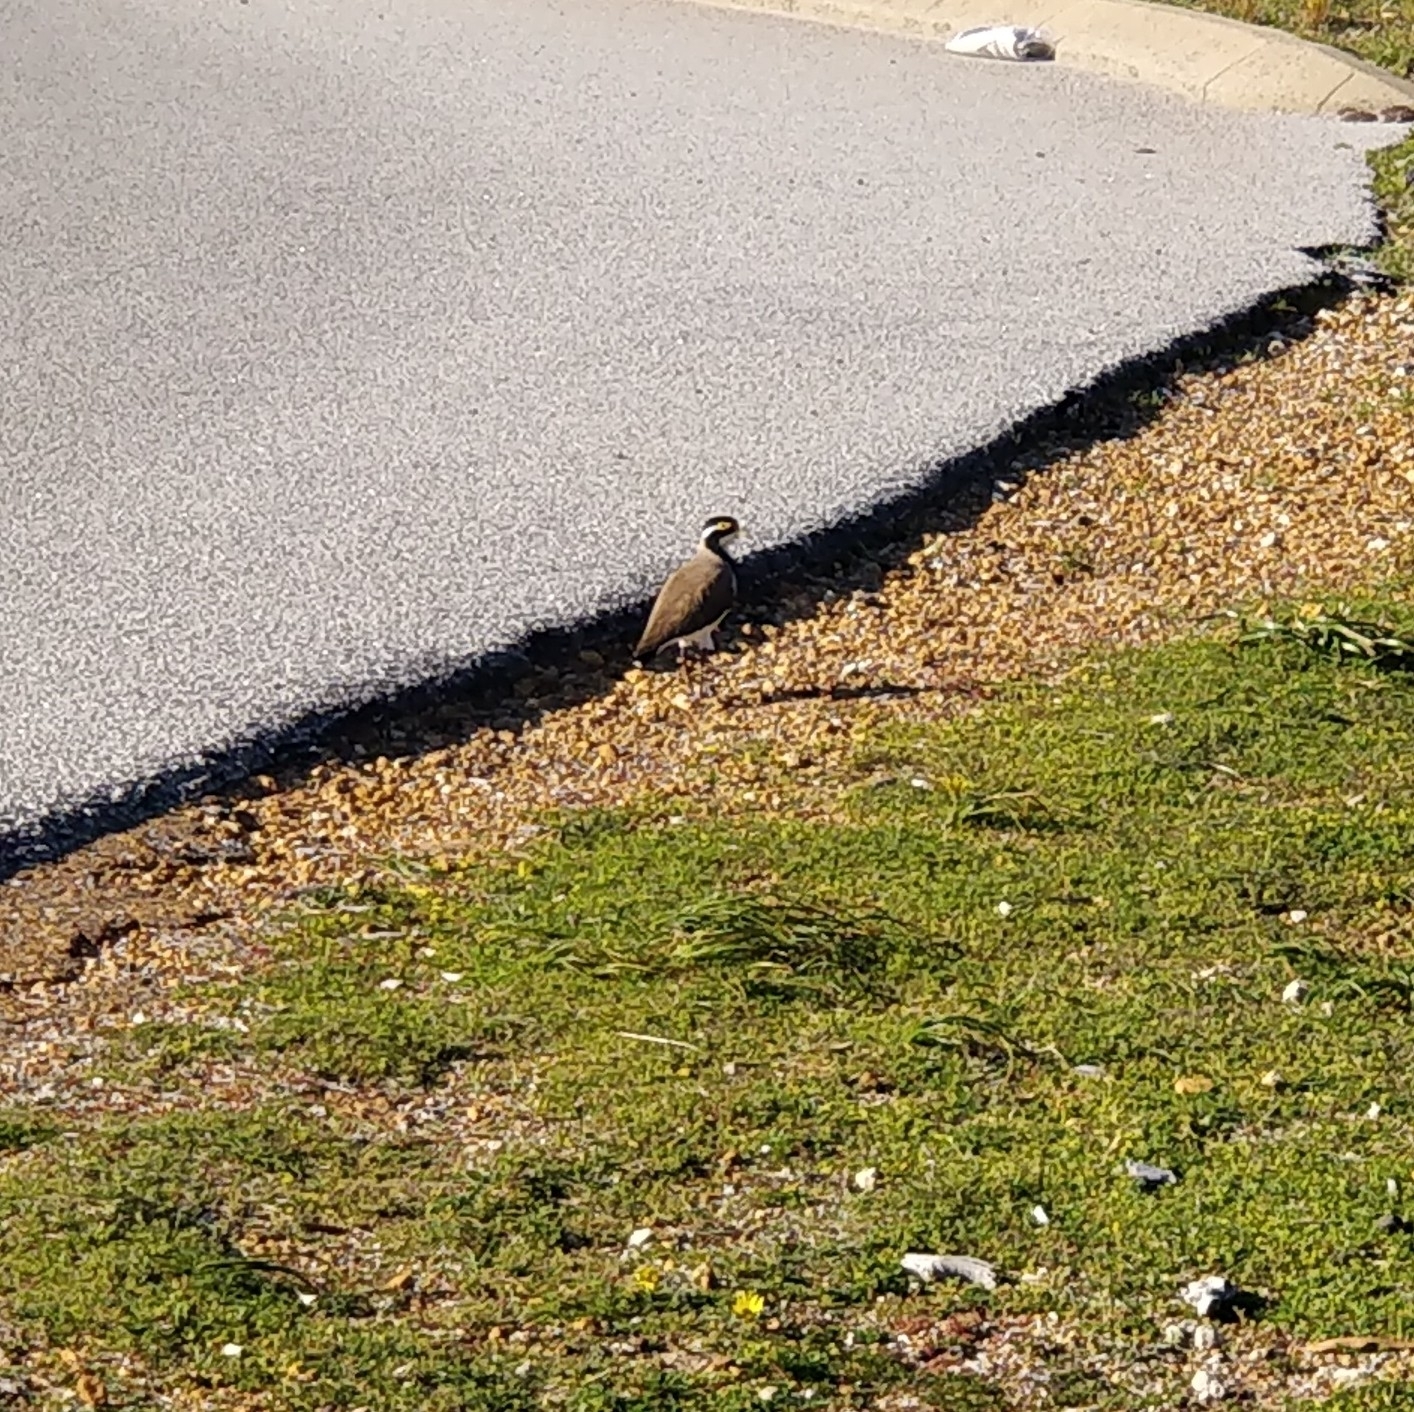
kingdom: Animalia
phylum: Chordata
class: Aves
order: Charadriiformes
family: Charadriidae
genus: Vanellus
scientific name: Vanellus tricolor
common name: Banded lapwing
